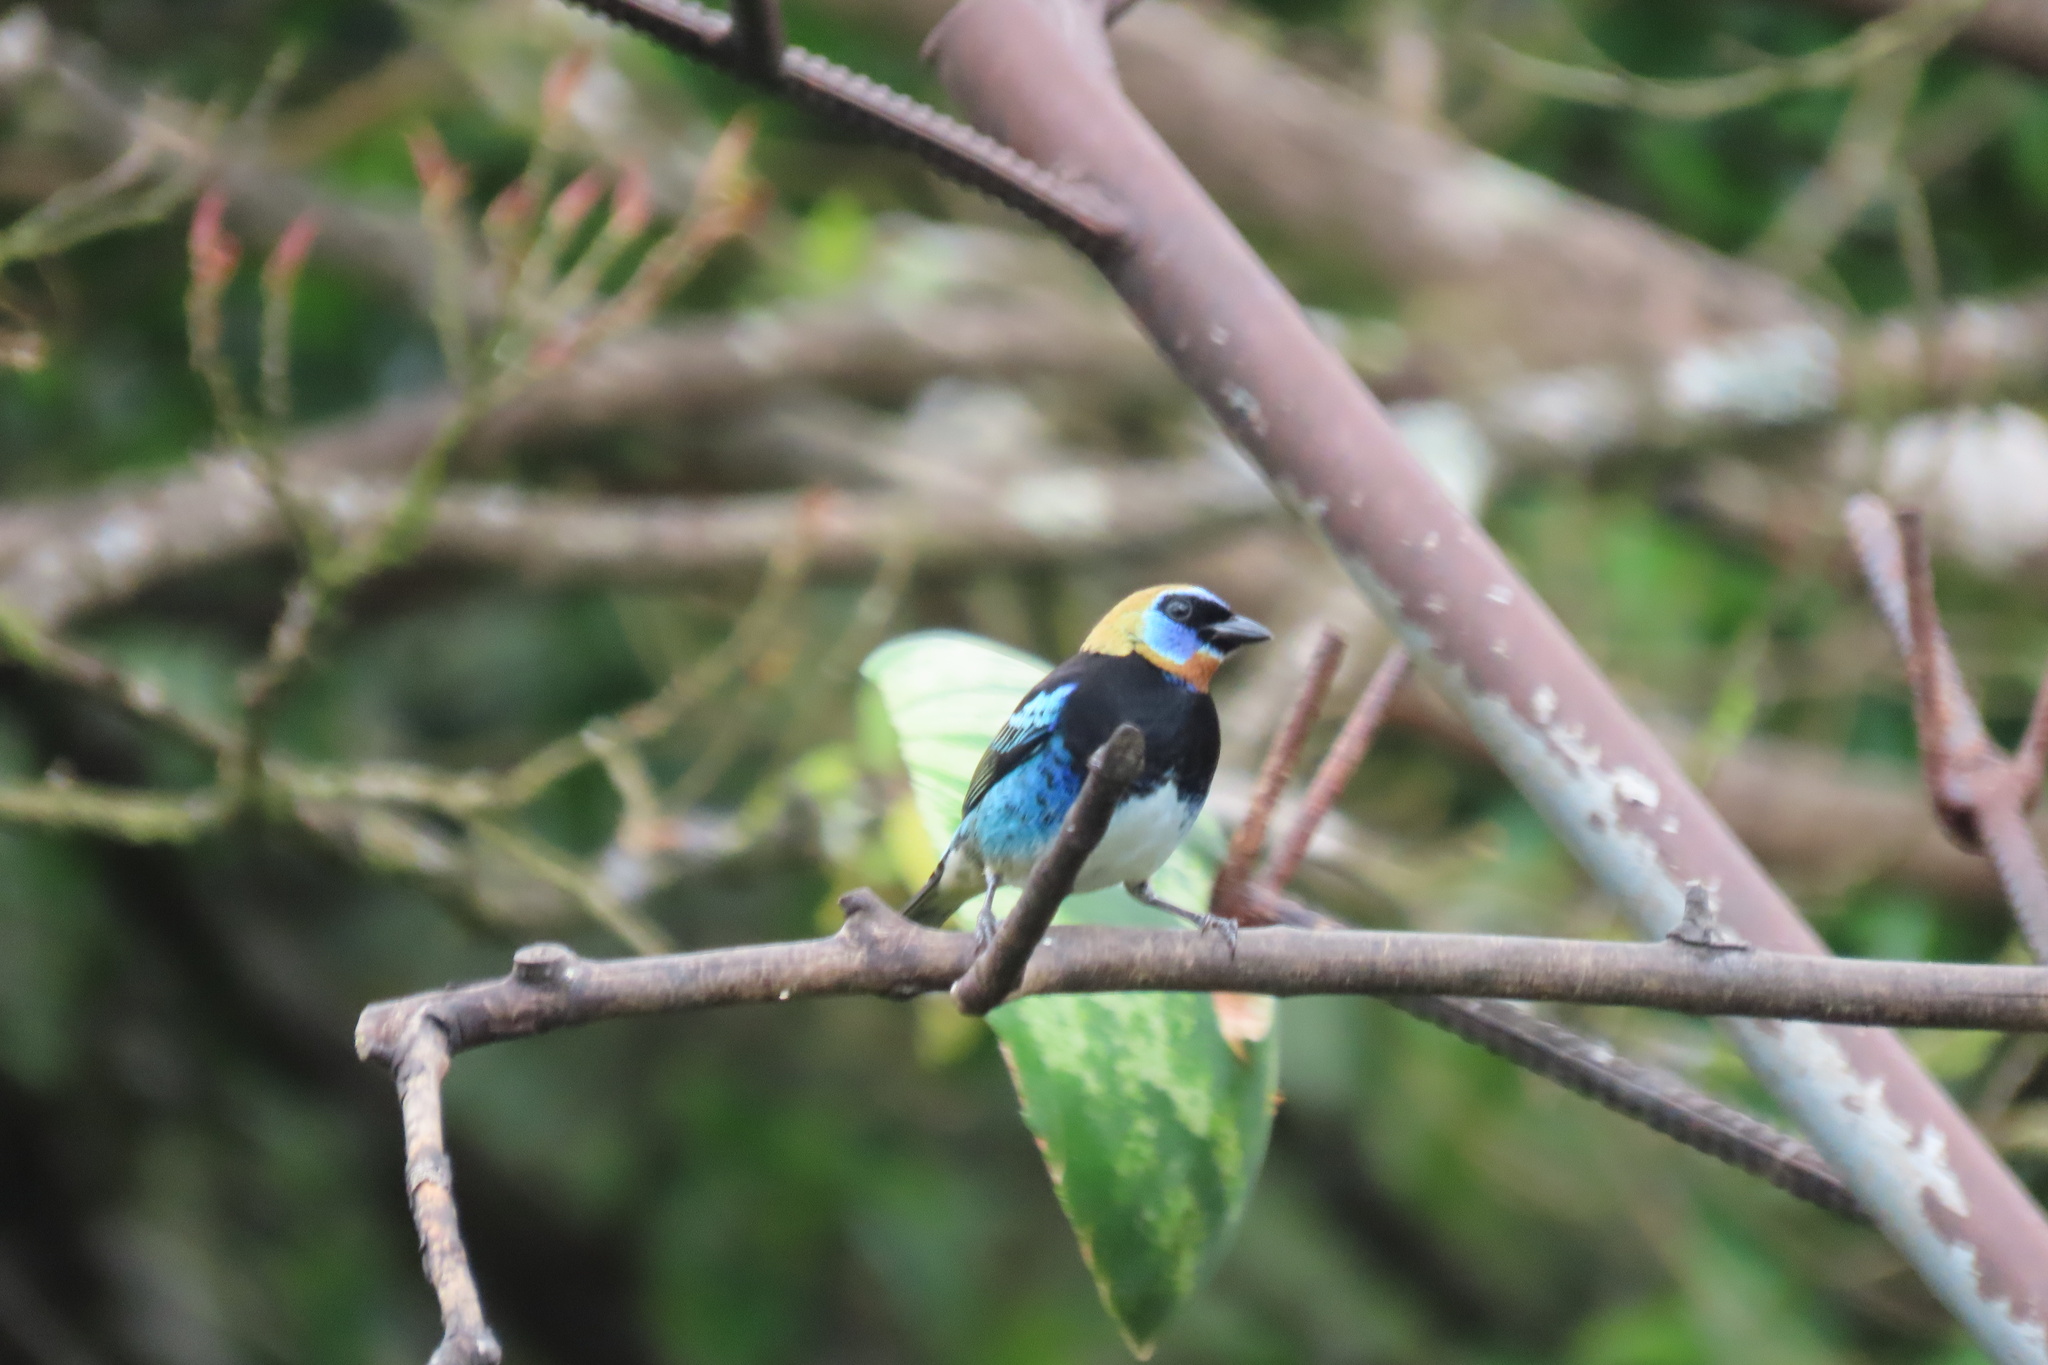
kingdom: Animalia
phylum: Chordata
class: Aves
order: Passeriformes
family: Thraupidae
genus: Stilpnia
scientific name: Stilpnia larvata
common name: Golden-hooded tanager
